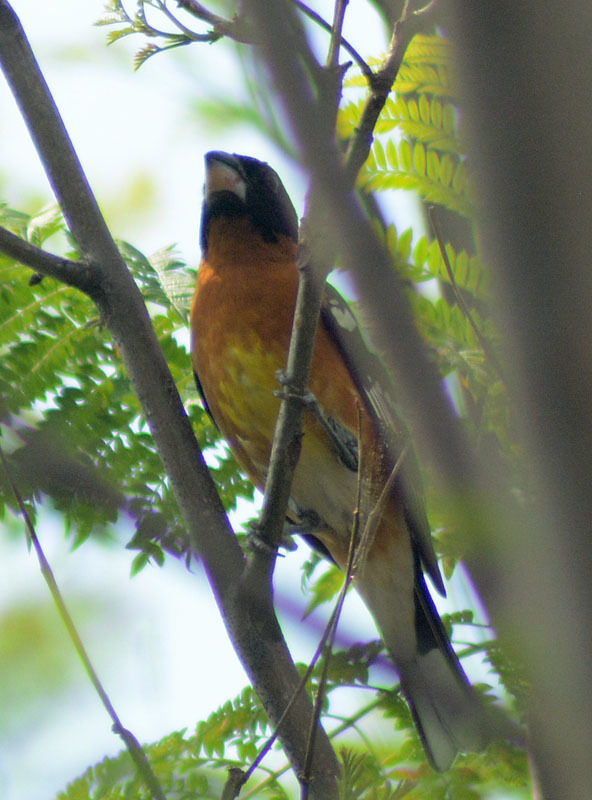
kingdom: Animalia
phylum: Chordata
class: Aves
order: Passeriformes
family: Cardinalidae
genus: Pheucticus
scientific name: Pheucticus melanocephalus
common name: Black-headed grosbeak
